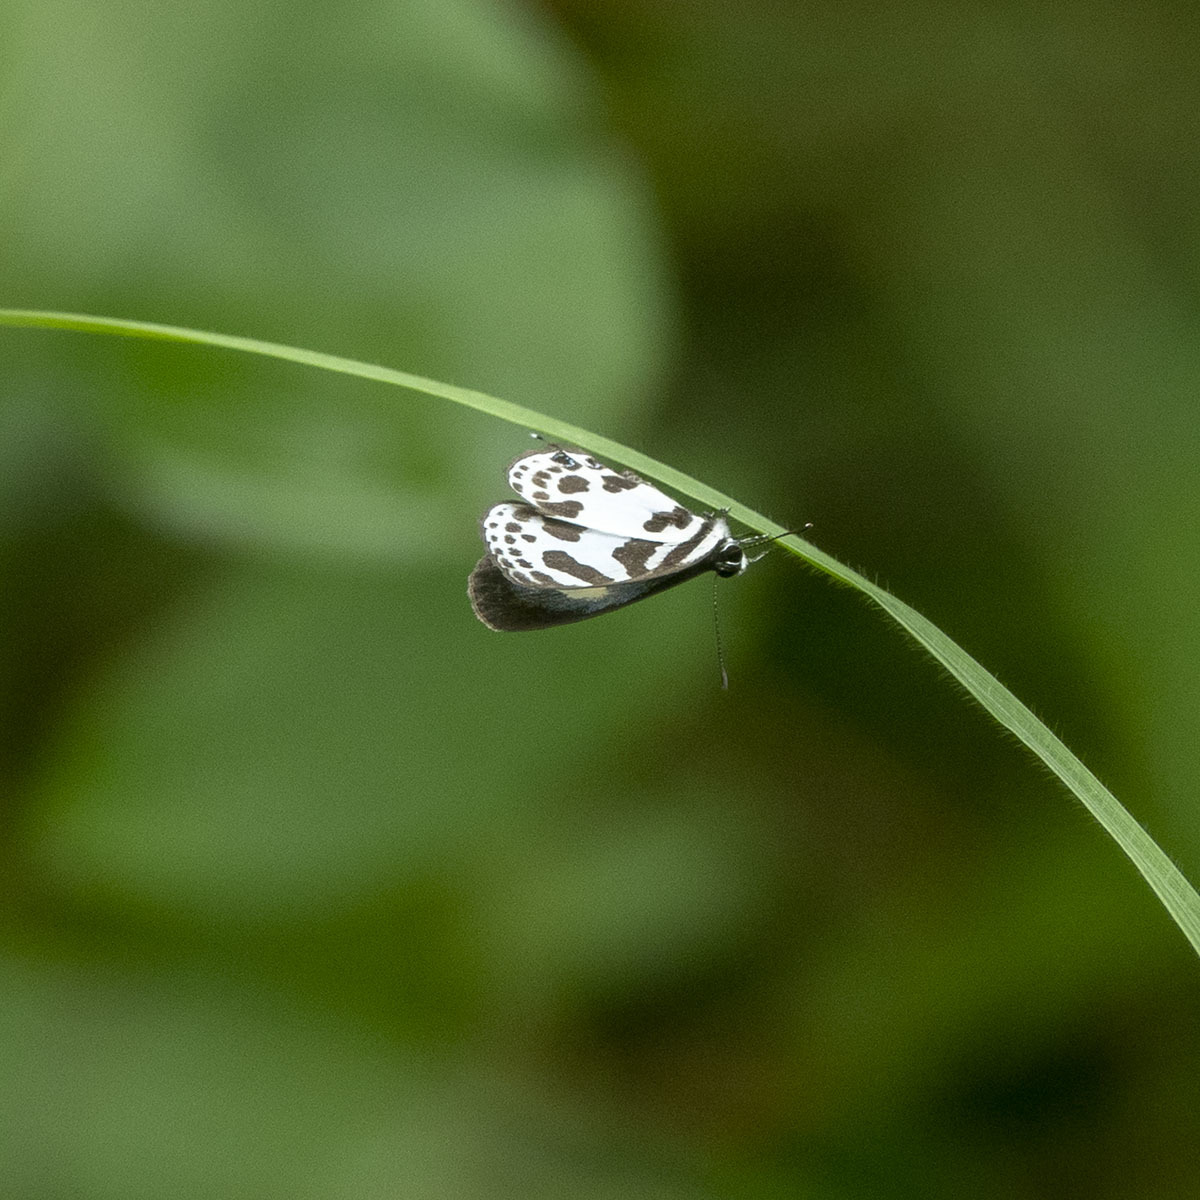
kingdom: Animalia
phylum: Arthropoda
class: Insecta
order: Lepidoptera
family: Lycaenidae
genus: Discolampa
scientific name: Discolampa ethion
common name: Banded blue pierrot
